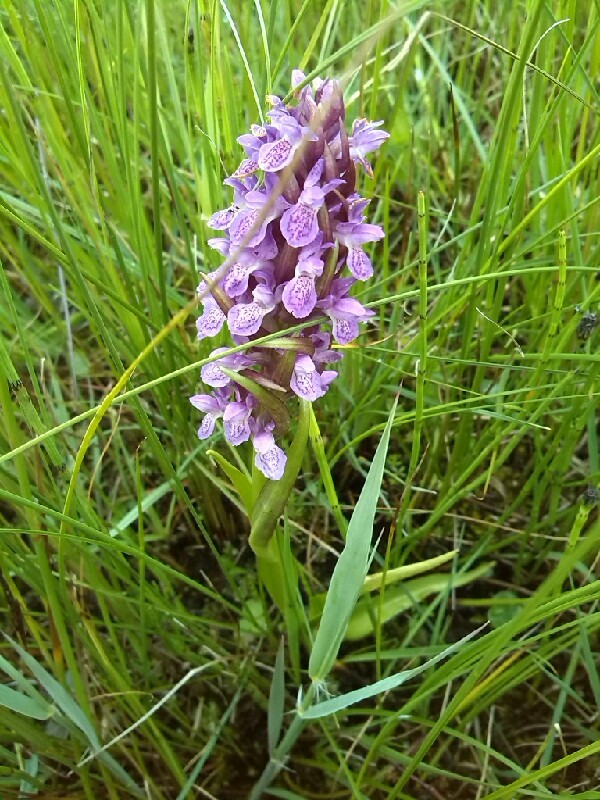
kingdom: Plantae
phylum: Tracheophyta
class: Liliopsida
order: Asparagales
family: Orchidaceae
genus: Dactylorhiza
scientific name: Dactylorhiza incarnata
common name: Early marsh-orchid
